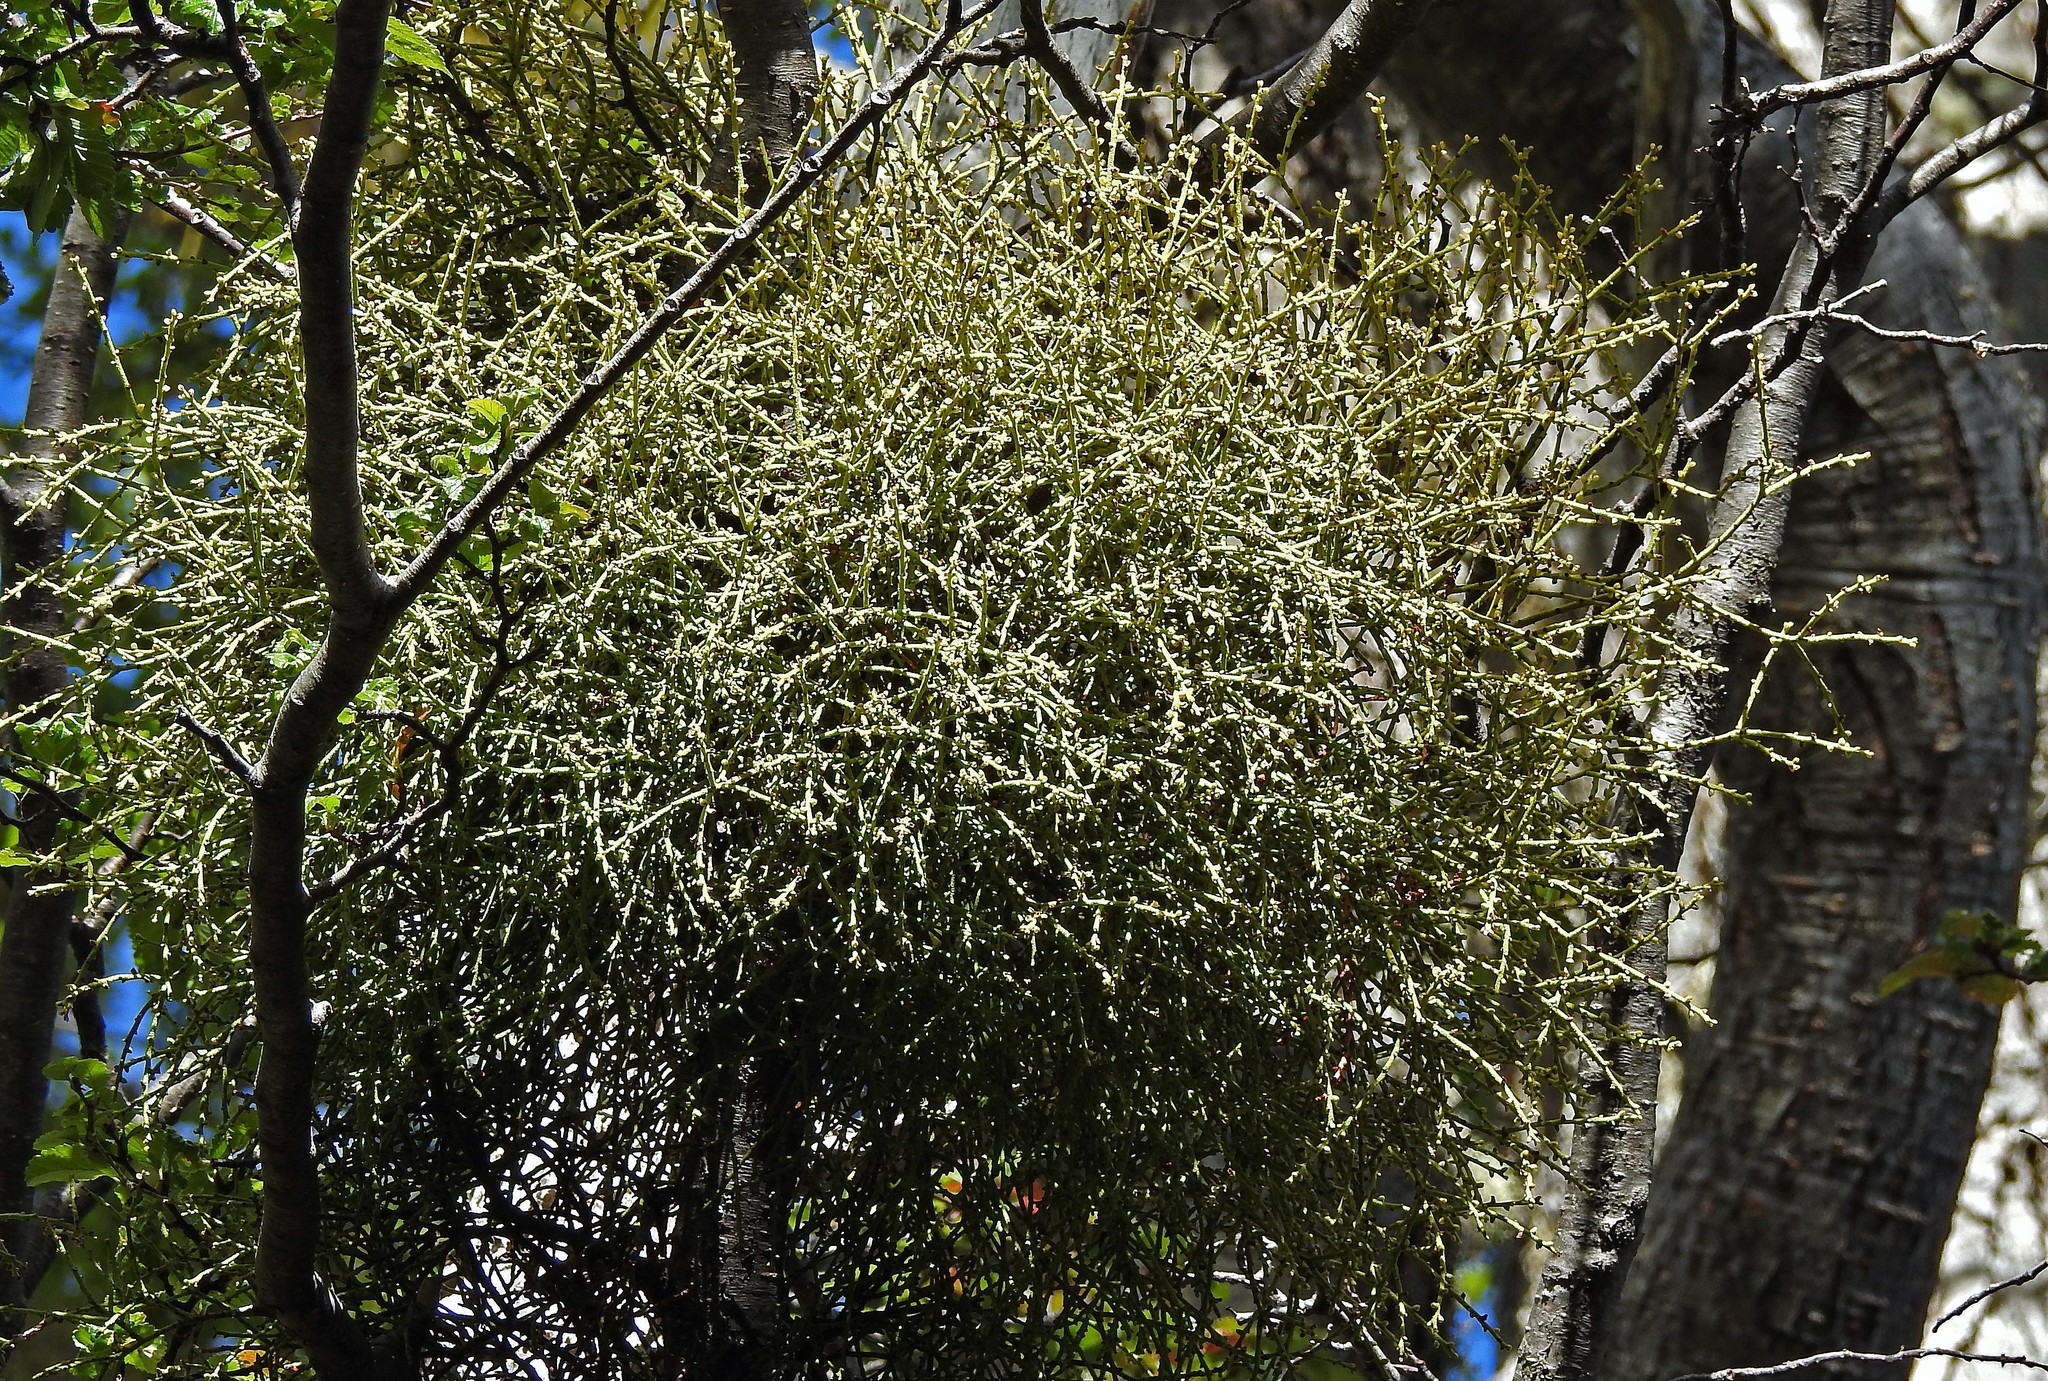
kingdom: Plantae
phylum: Tracheophyta
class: Magnoliopsida
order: Santalales
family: Misodendraceae
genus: Misodendrum
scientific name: Misodendrum punctulatum
